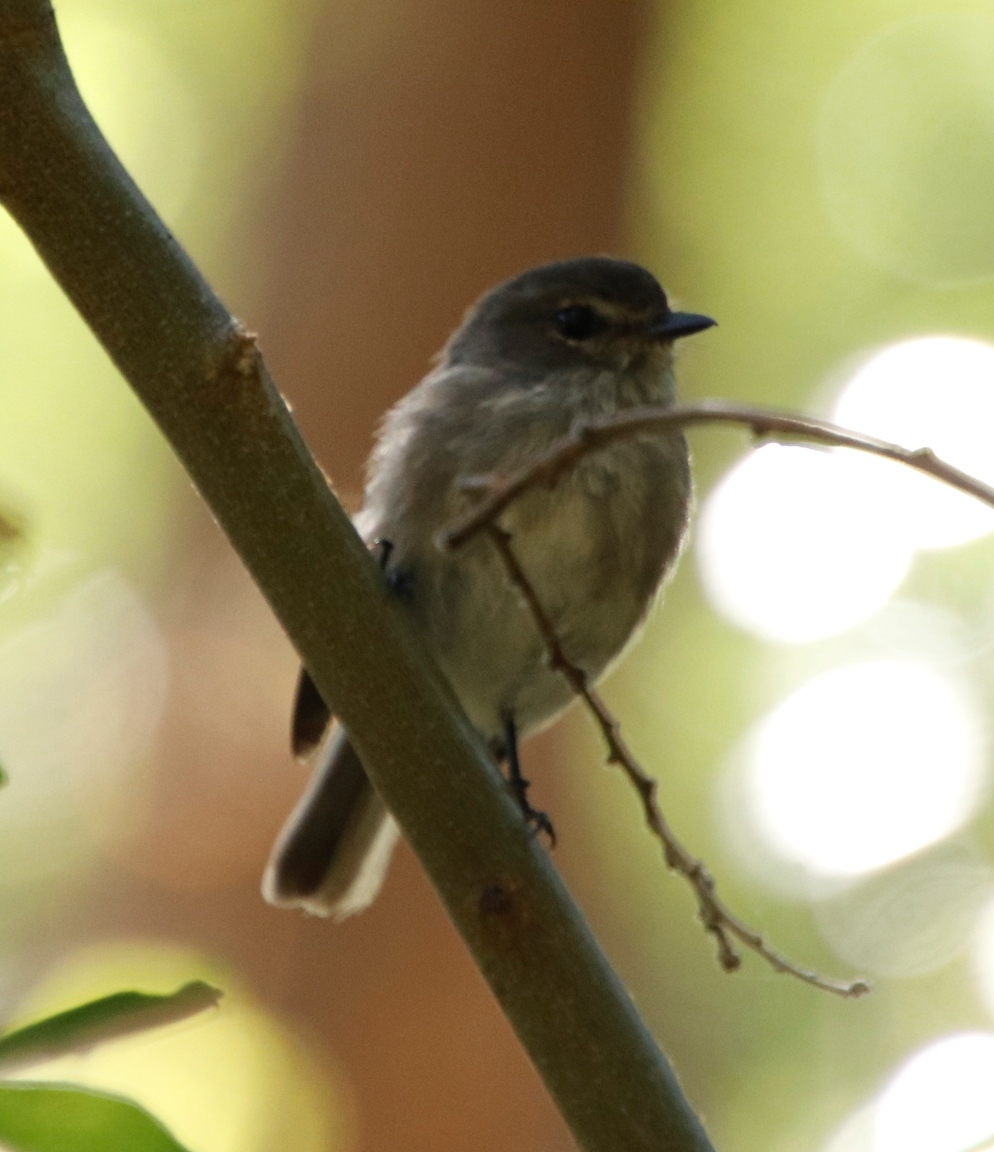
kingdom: Animalia
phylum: Chordata
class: Aves
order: Passeriformes
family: Muscicapidae
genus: Muscicapa
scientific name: Muscicapa adusta
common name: African dusky flycatcher
